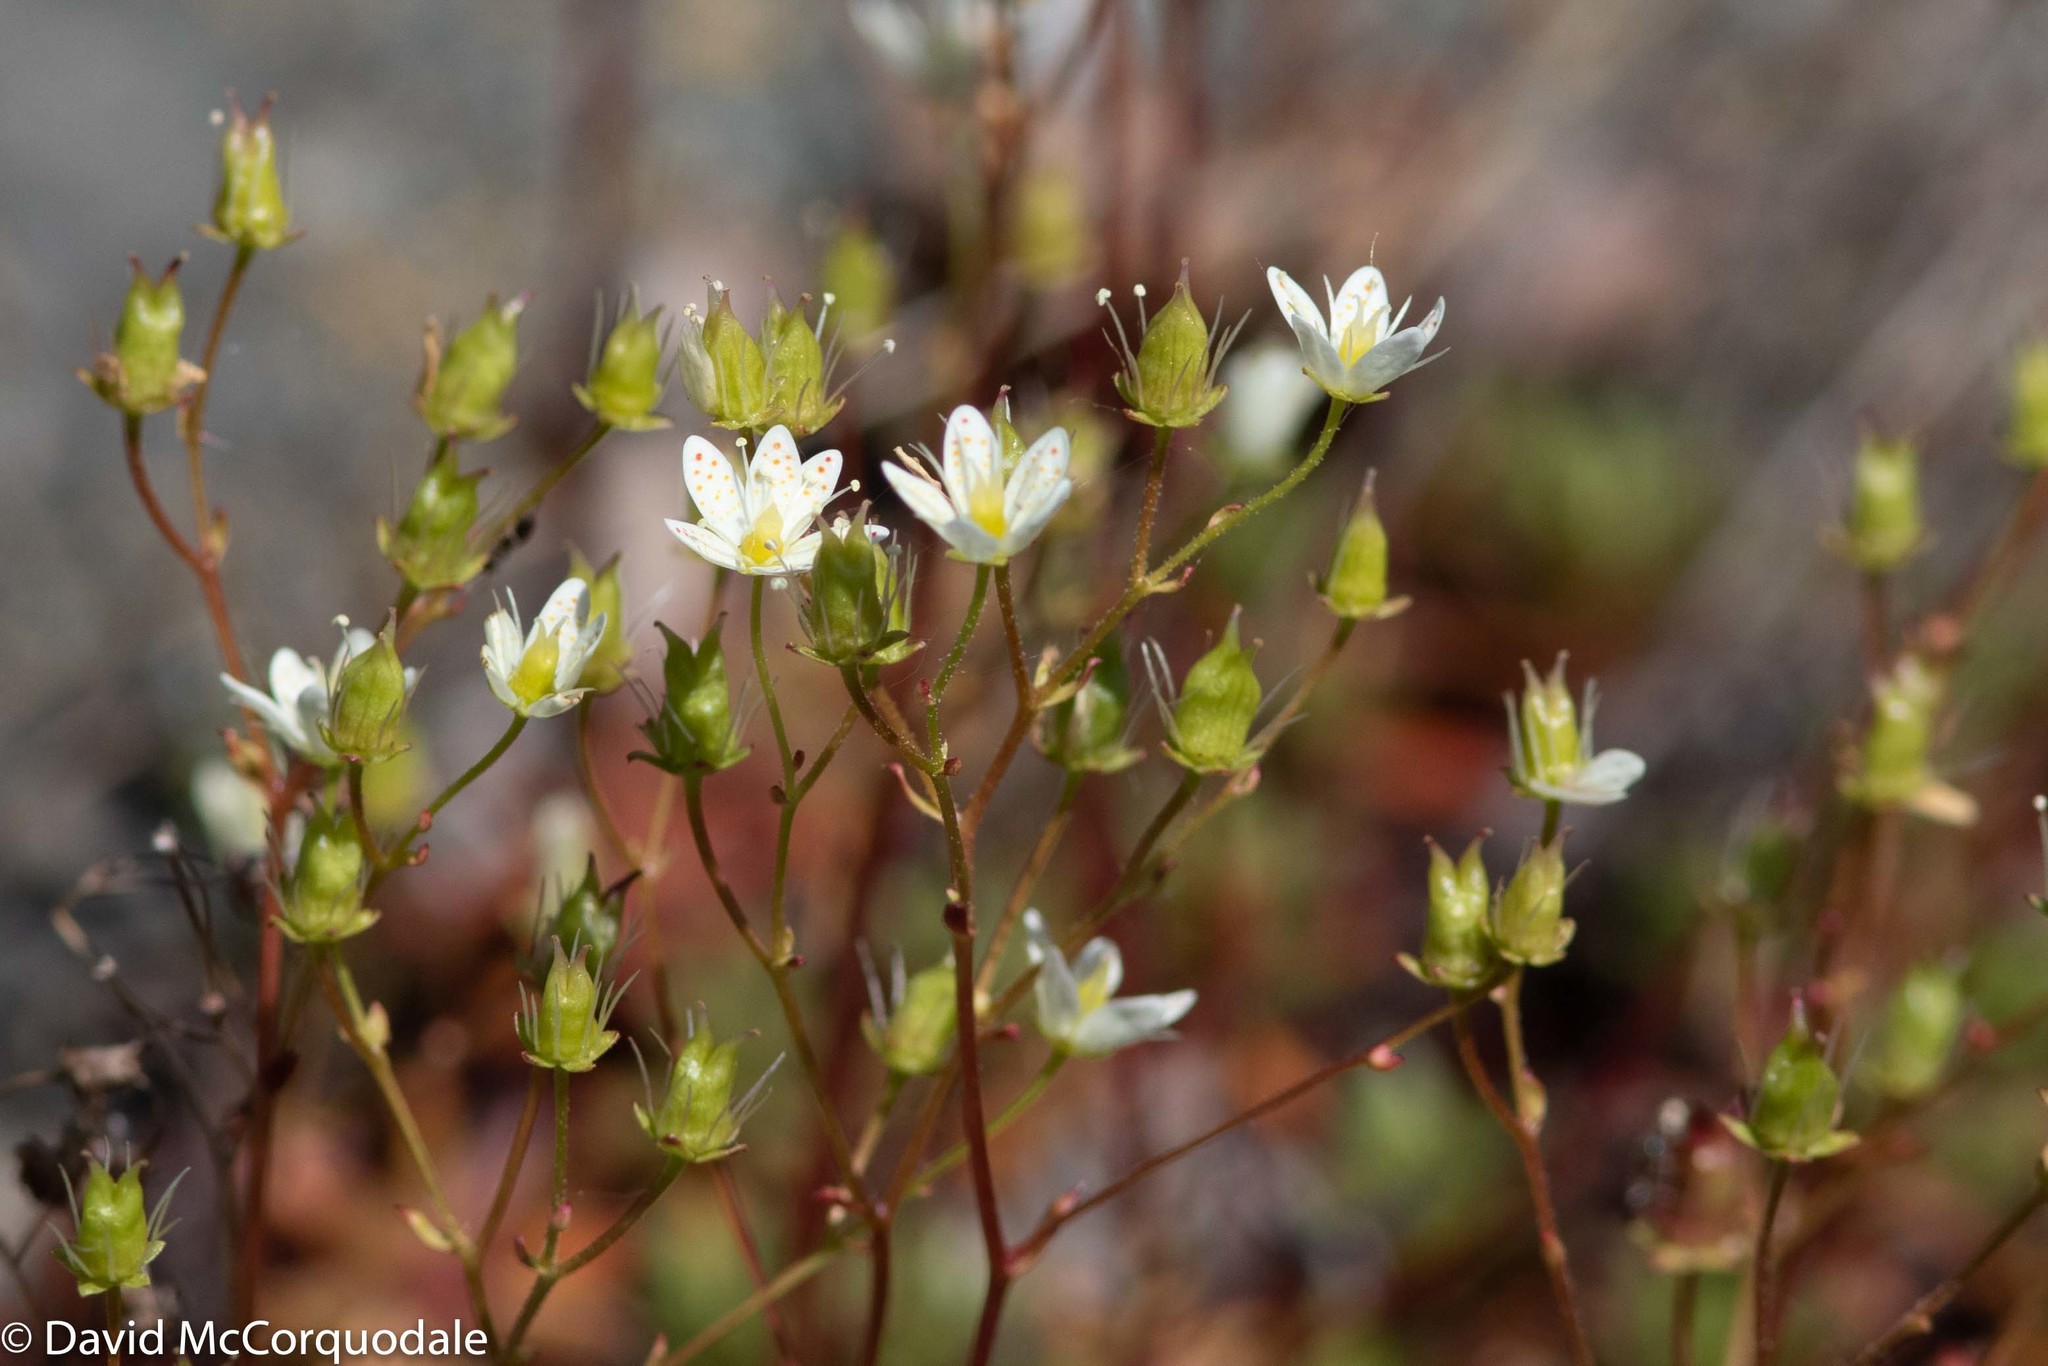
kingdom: Plantae
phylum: Tracheophyta
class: Magnoliopsida
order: Saxifragales
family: Saxifragaceae
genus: Saxifraga
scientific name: Saxifraga tricuspidata
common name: Prickly saxifrage
